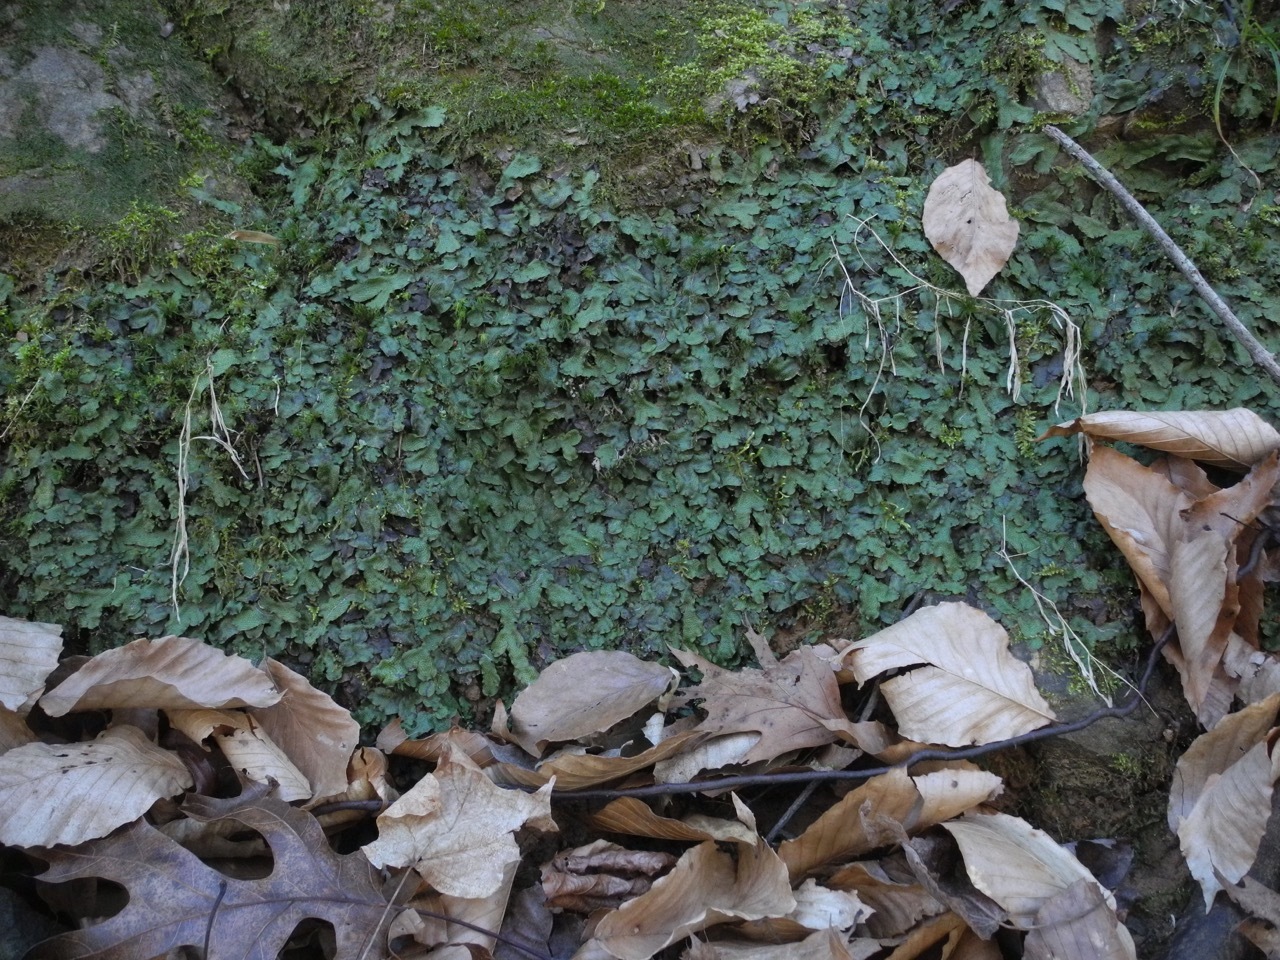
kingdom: Plantae
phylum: Marchantiophyta
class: Marchantiopsida
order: Marchantiales
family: Conocephalaceae
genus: Conocephalum
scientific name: Conocephalum salebrosum
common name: Cat-tongue liverwort
